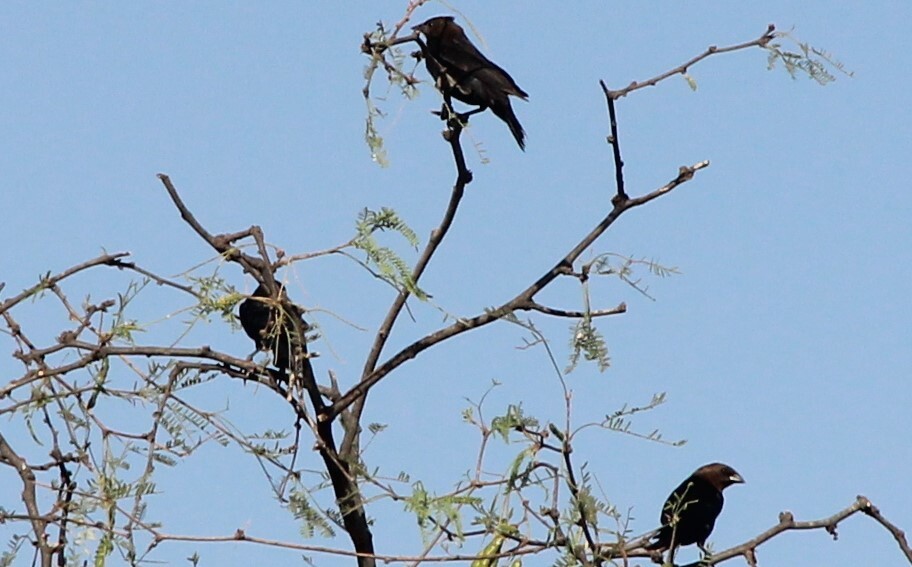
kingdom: Animalia
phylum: Chordata
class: Aves
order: Passeriformes
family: Icteridae
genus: Molothrus
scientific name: Molothrus ater
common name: Brown-headed cowbird
